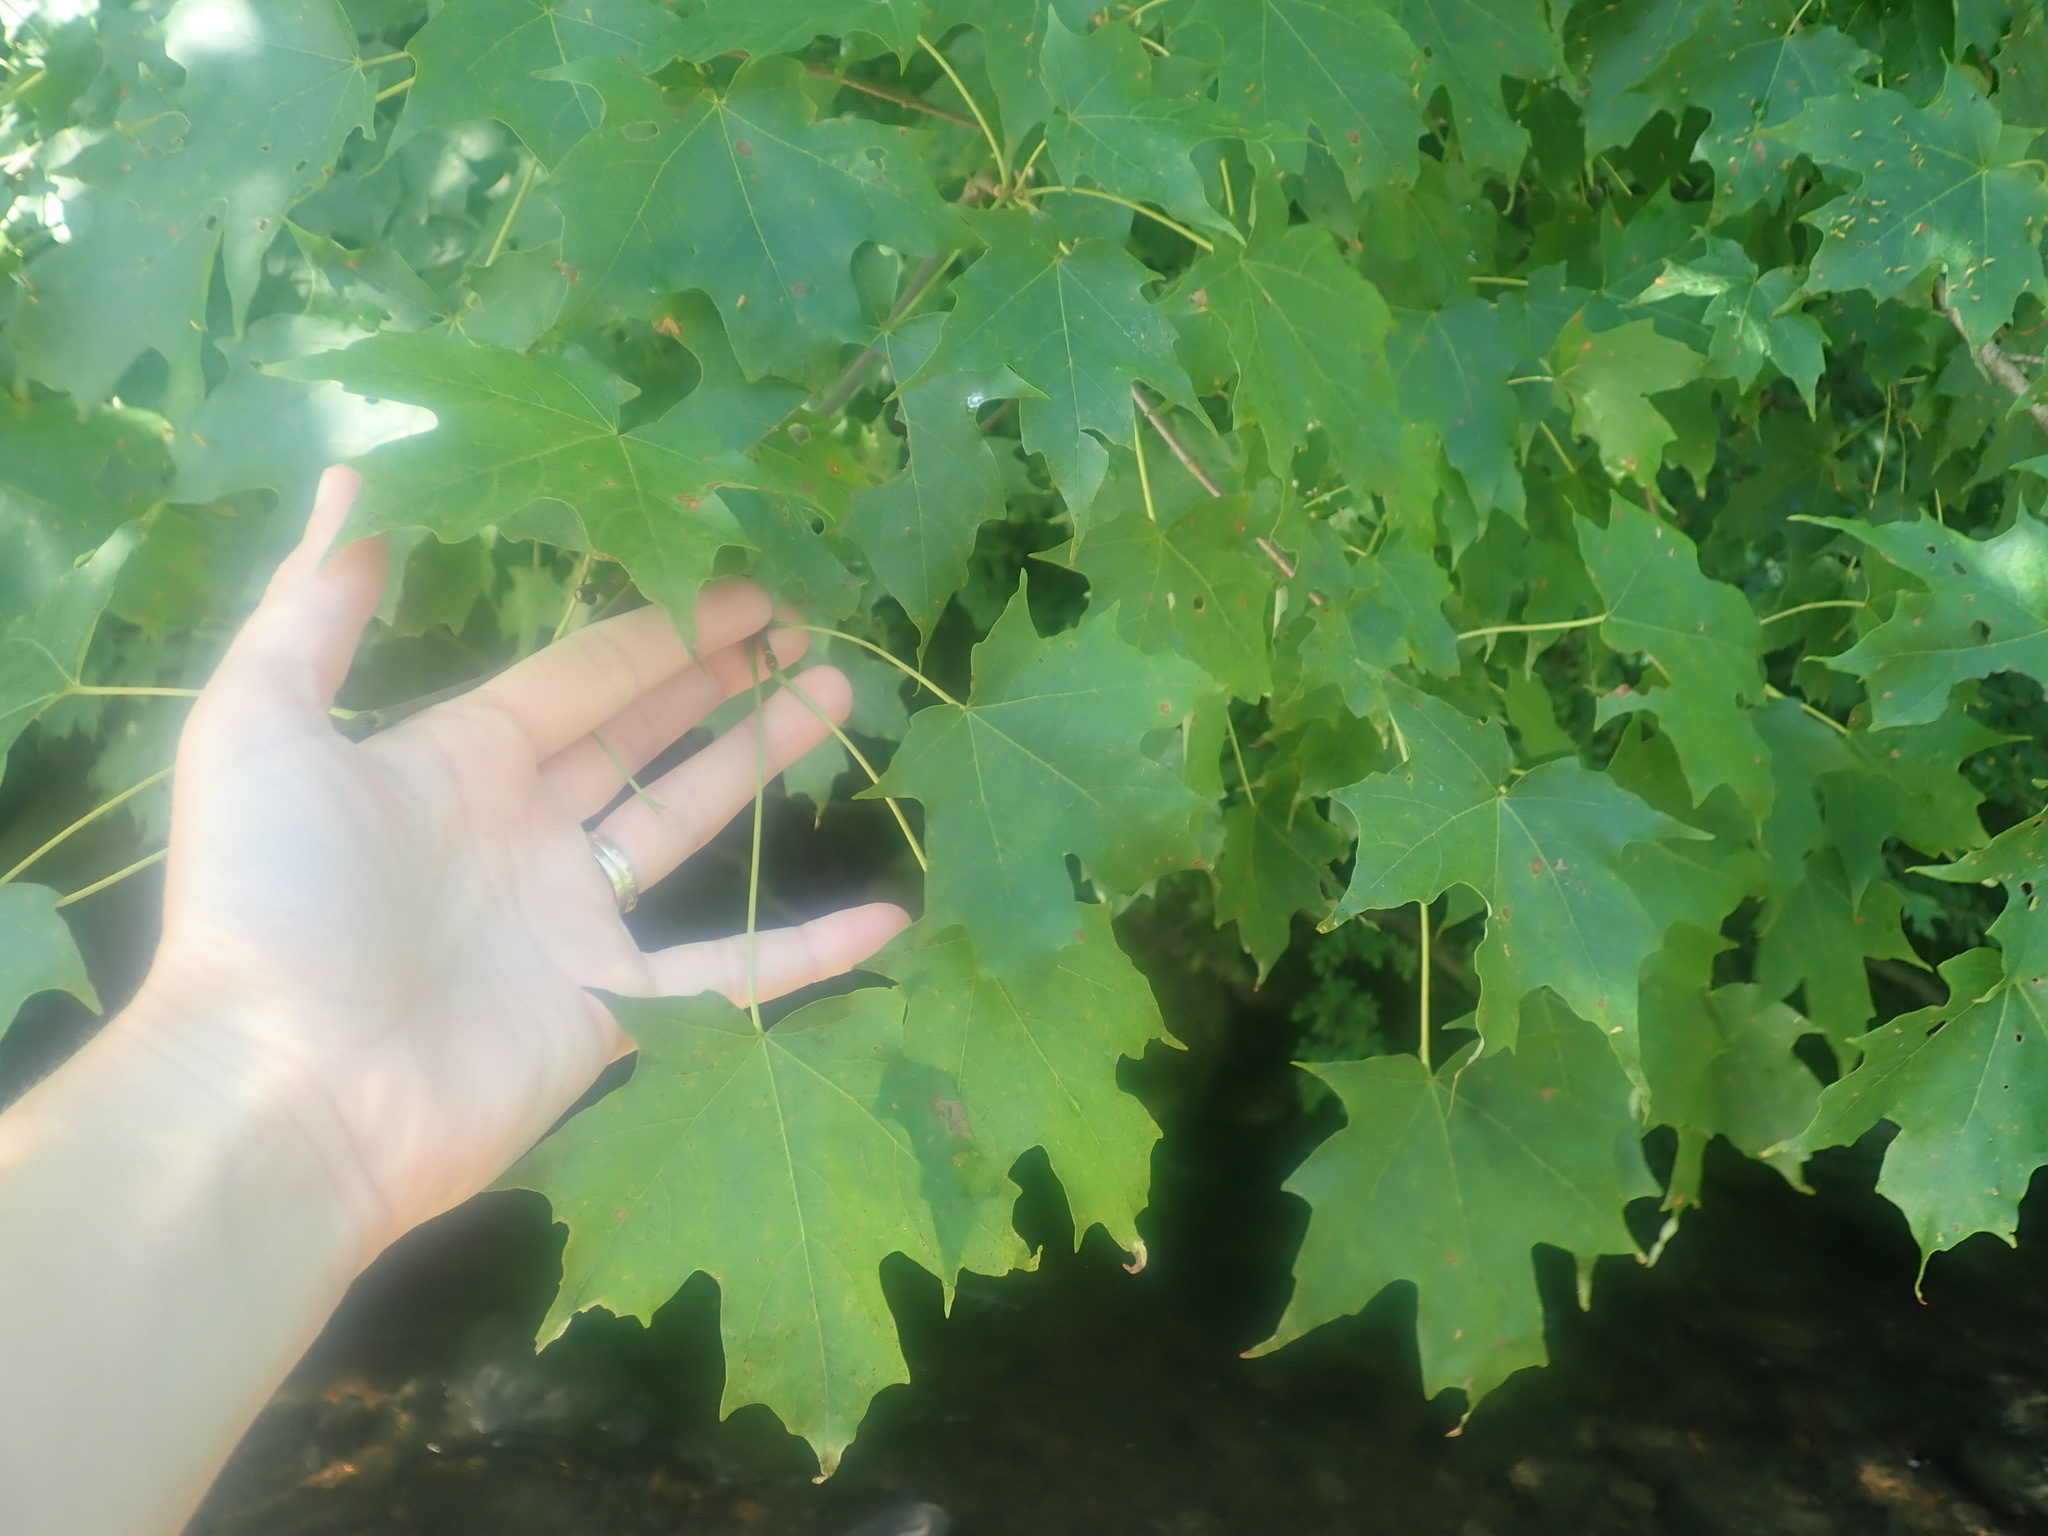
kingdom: Plantae
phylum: Tracheophyta
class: Magnoliopsida
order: Sapindales
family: Sapindaceae
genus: Acer
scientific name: Acer saccharum
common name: Sugar maple
